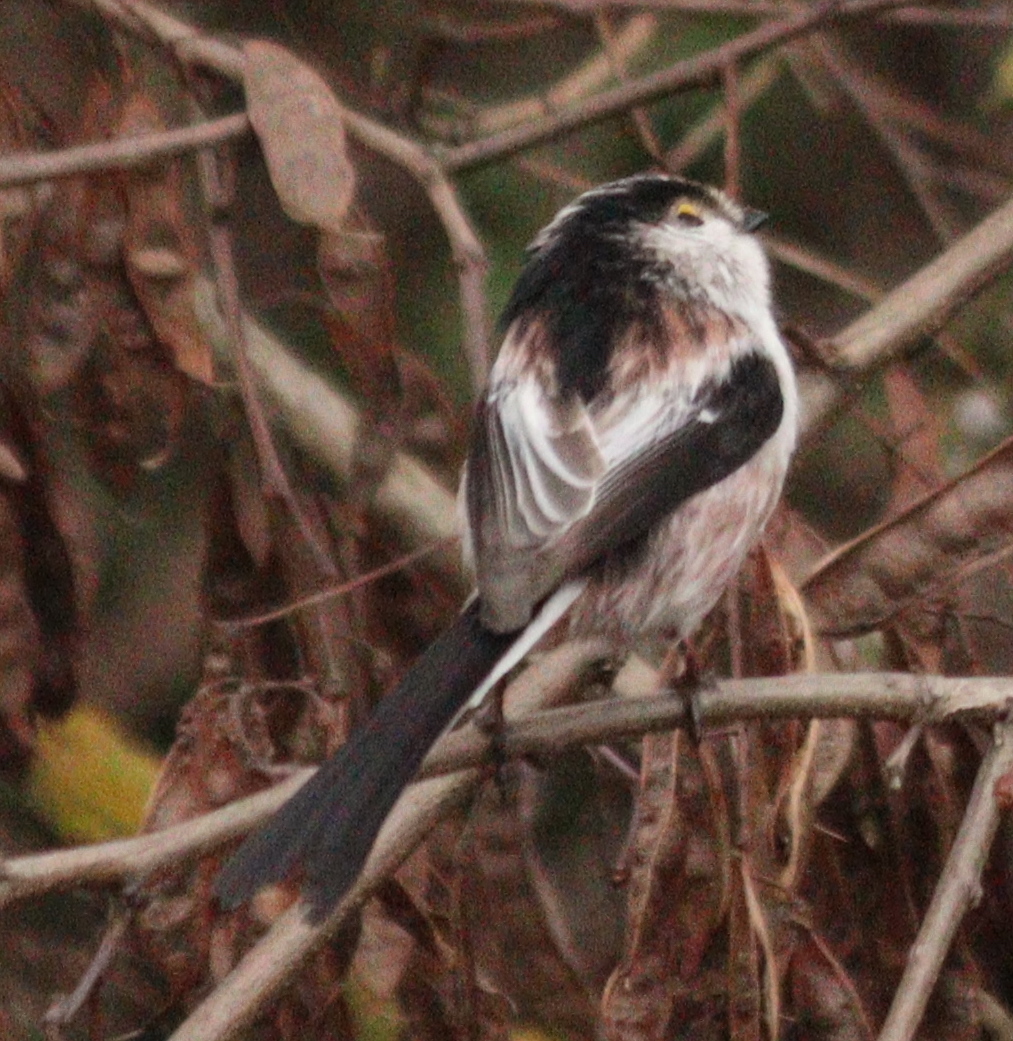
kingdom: Animalia
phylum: Chordata
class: Aves
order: Passeriformes
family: Aegithalidae
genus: Aegithalos
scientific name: Aegithalos caudatus
